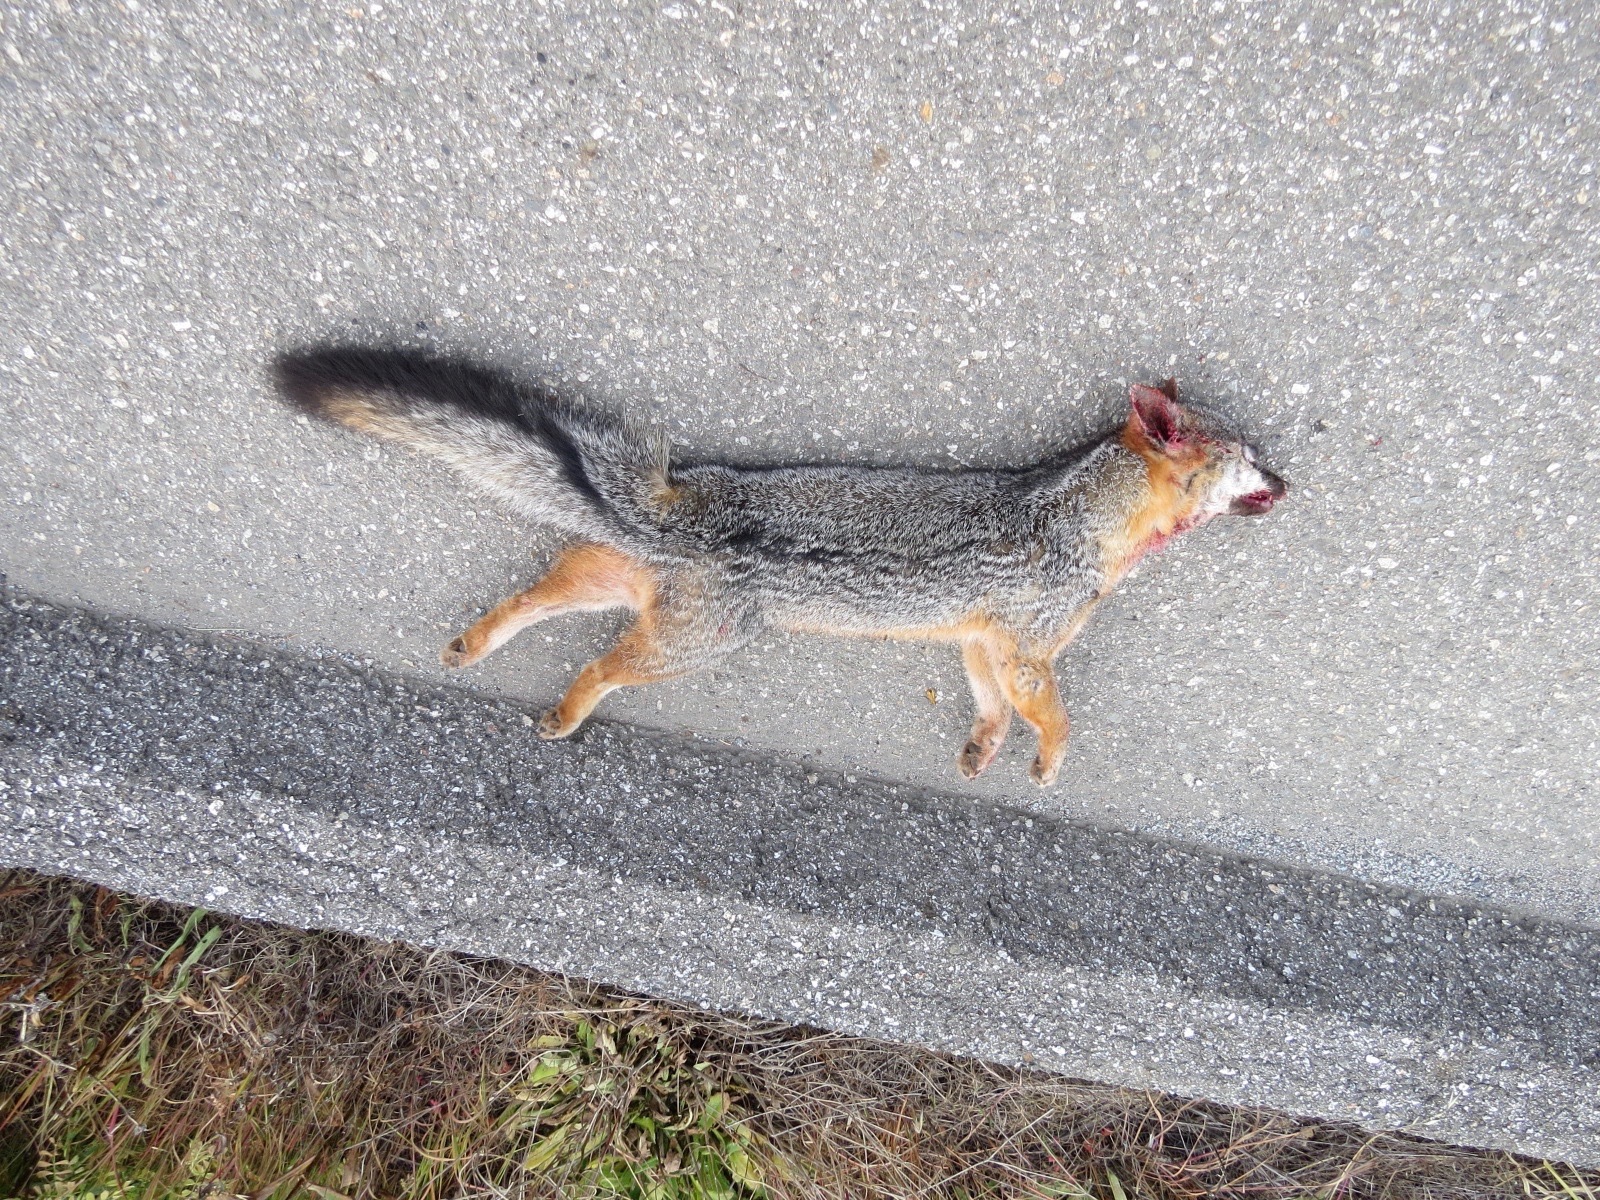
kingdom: Animalia
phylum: Chordata
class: Mammalia
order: Carnivora
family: Canidae
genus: Urocyon
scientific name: Urocyon cinereoargenteus
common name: Gray fox
